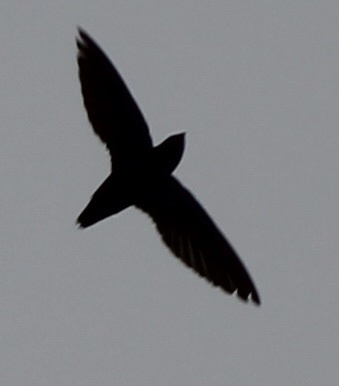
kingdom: Animalia
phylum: Chordata
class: Aves
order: Apodiformes
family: Apodidae
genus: Chaetura
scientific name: Chaetura pelagica
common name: Chimney swift
